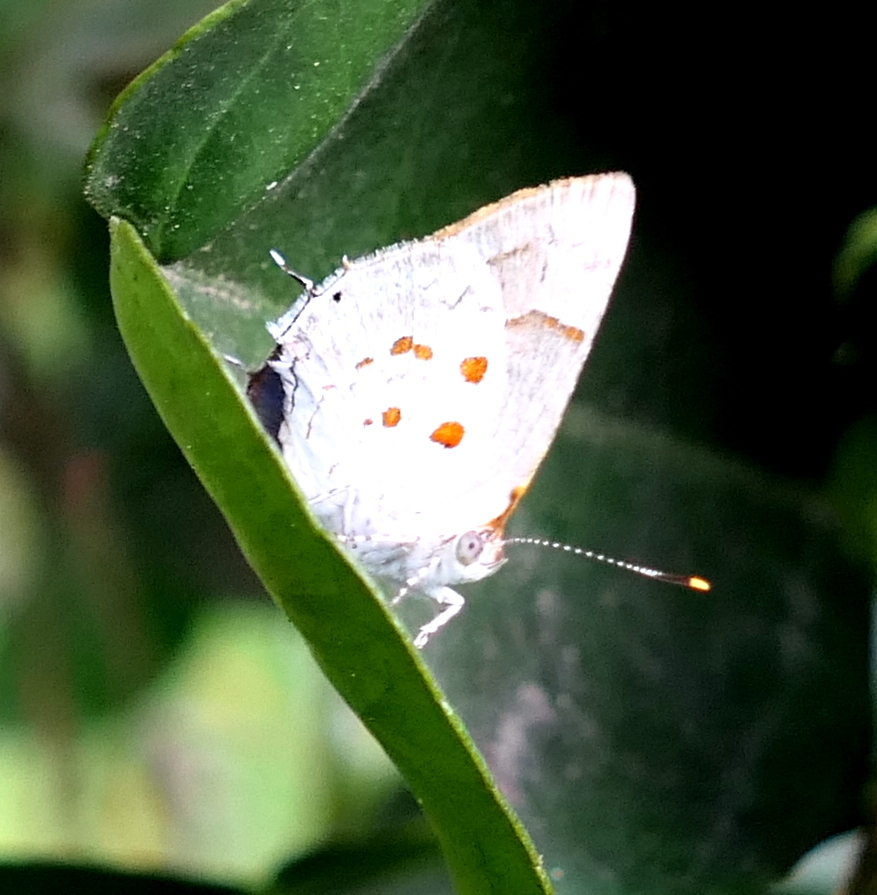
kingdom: Animalia
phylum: Arthropoda
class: Insecta
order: Lepidoptera
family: Lycaenidae
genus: Tmolus
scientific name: Tmolus echion
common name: Red-spotted hairstreak
